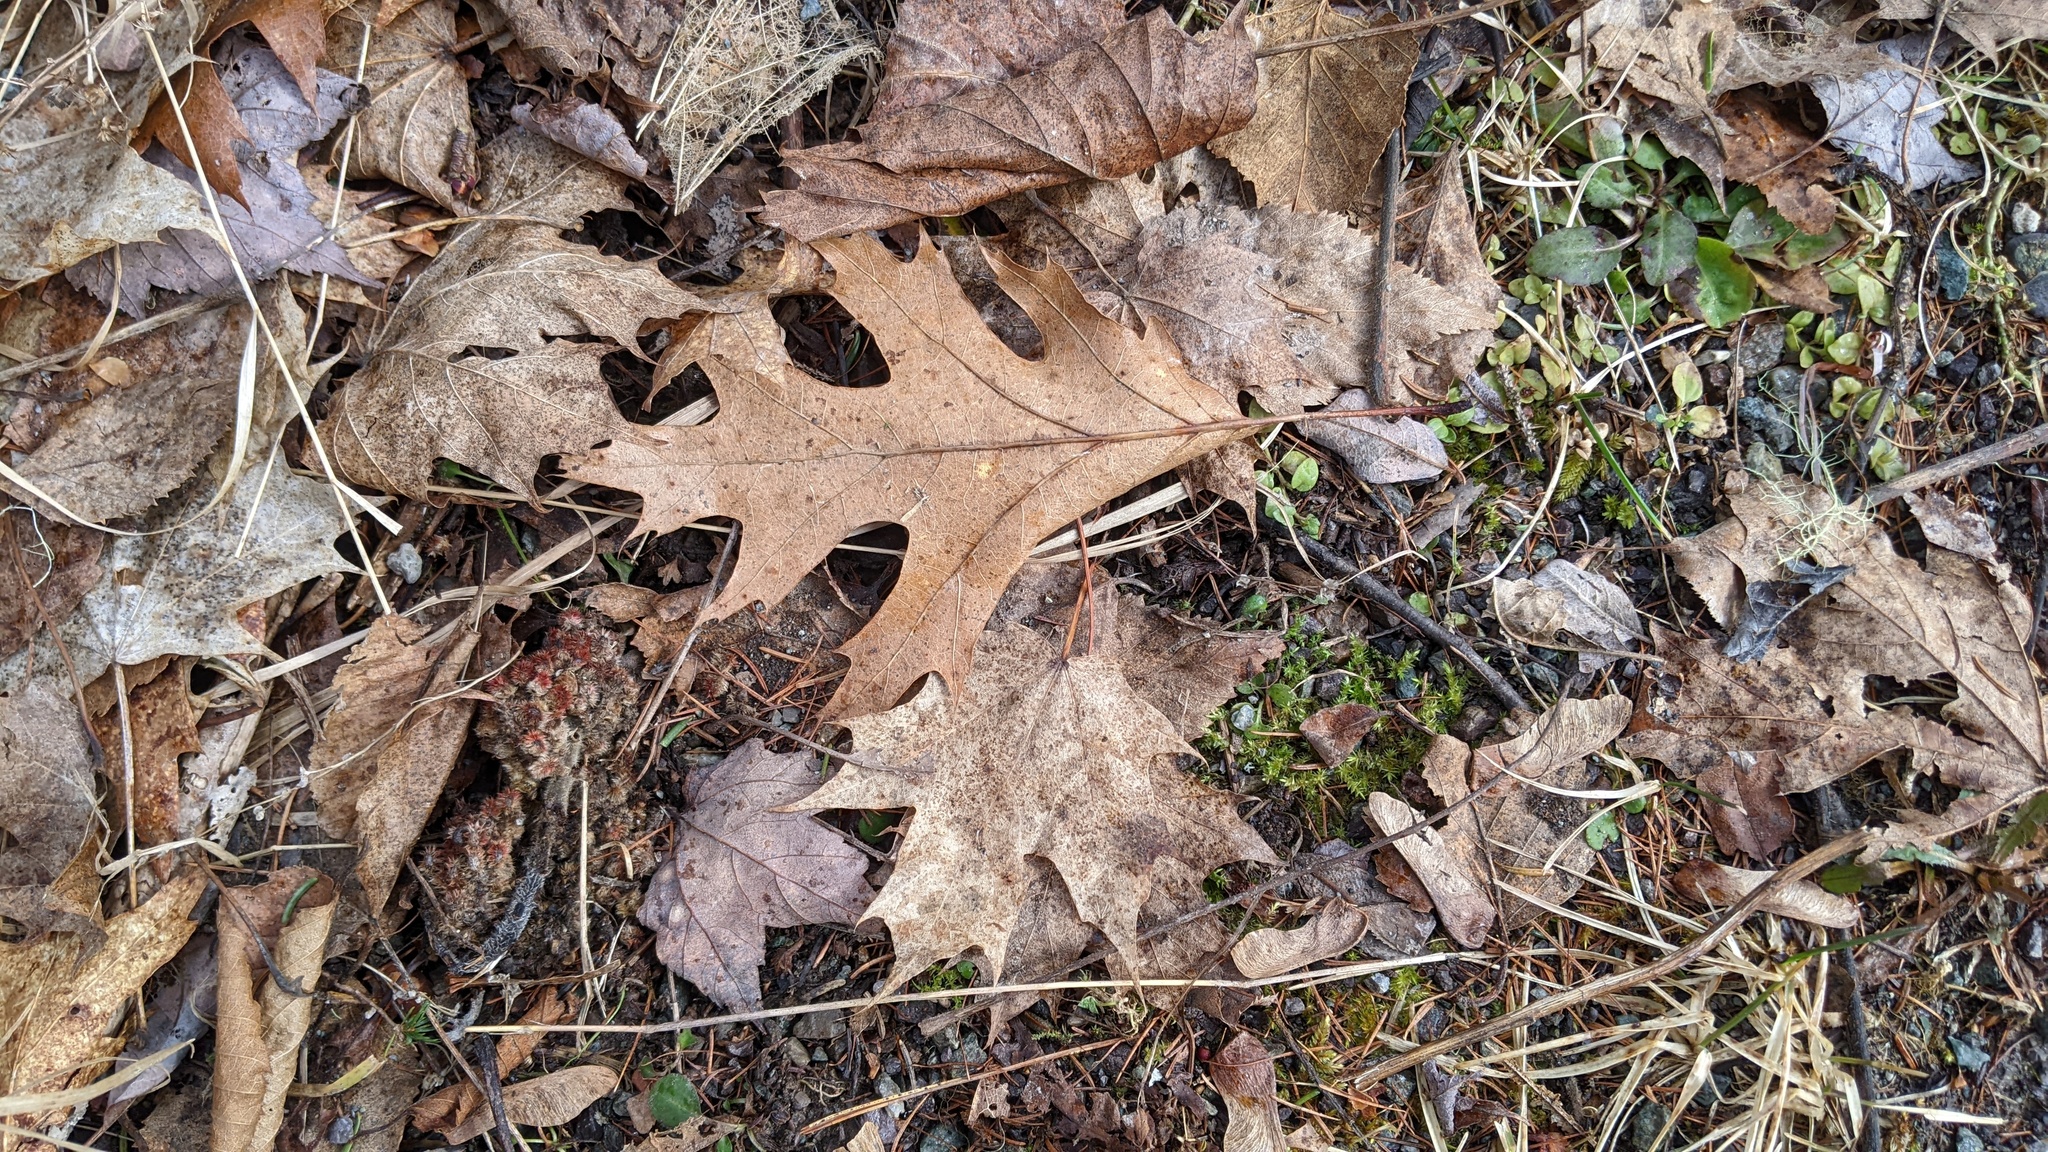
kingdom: Plantae
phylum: Tracheophyta
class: Magnoliopsida
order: Fagales
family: Fagaceae
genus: Quercus
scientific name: Quercus rubra
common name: Red oak
